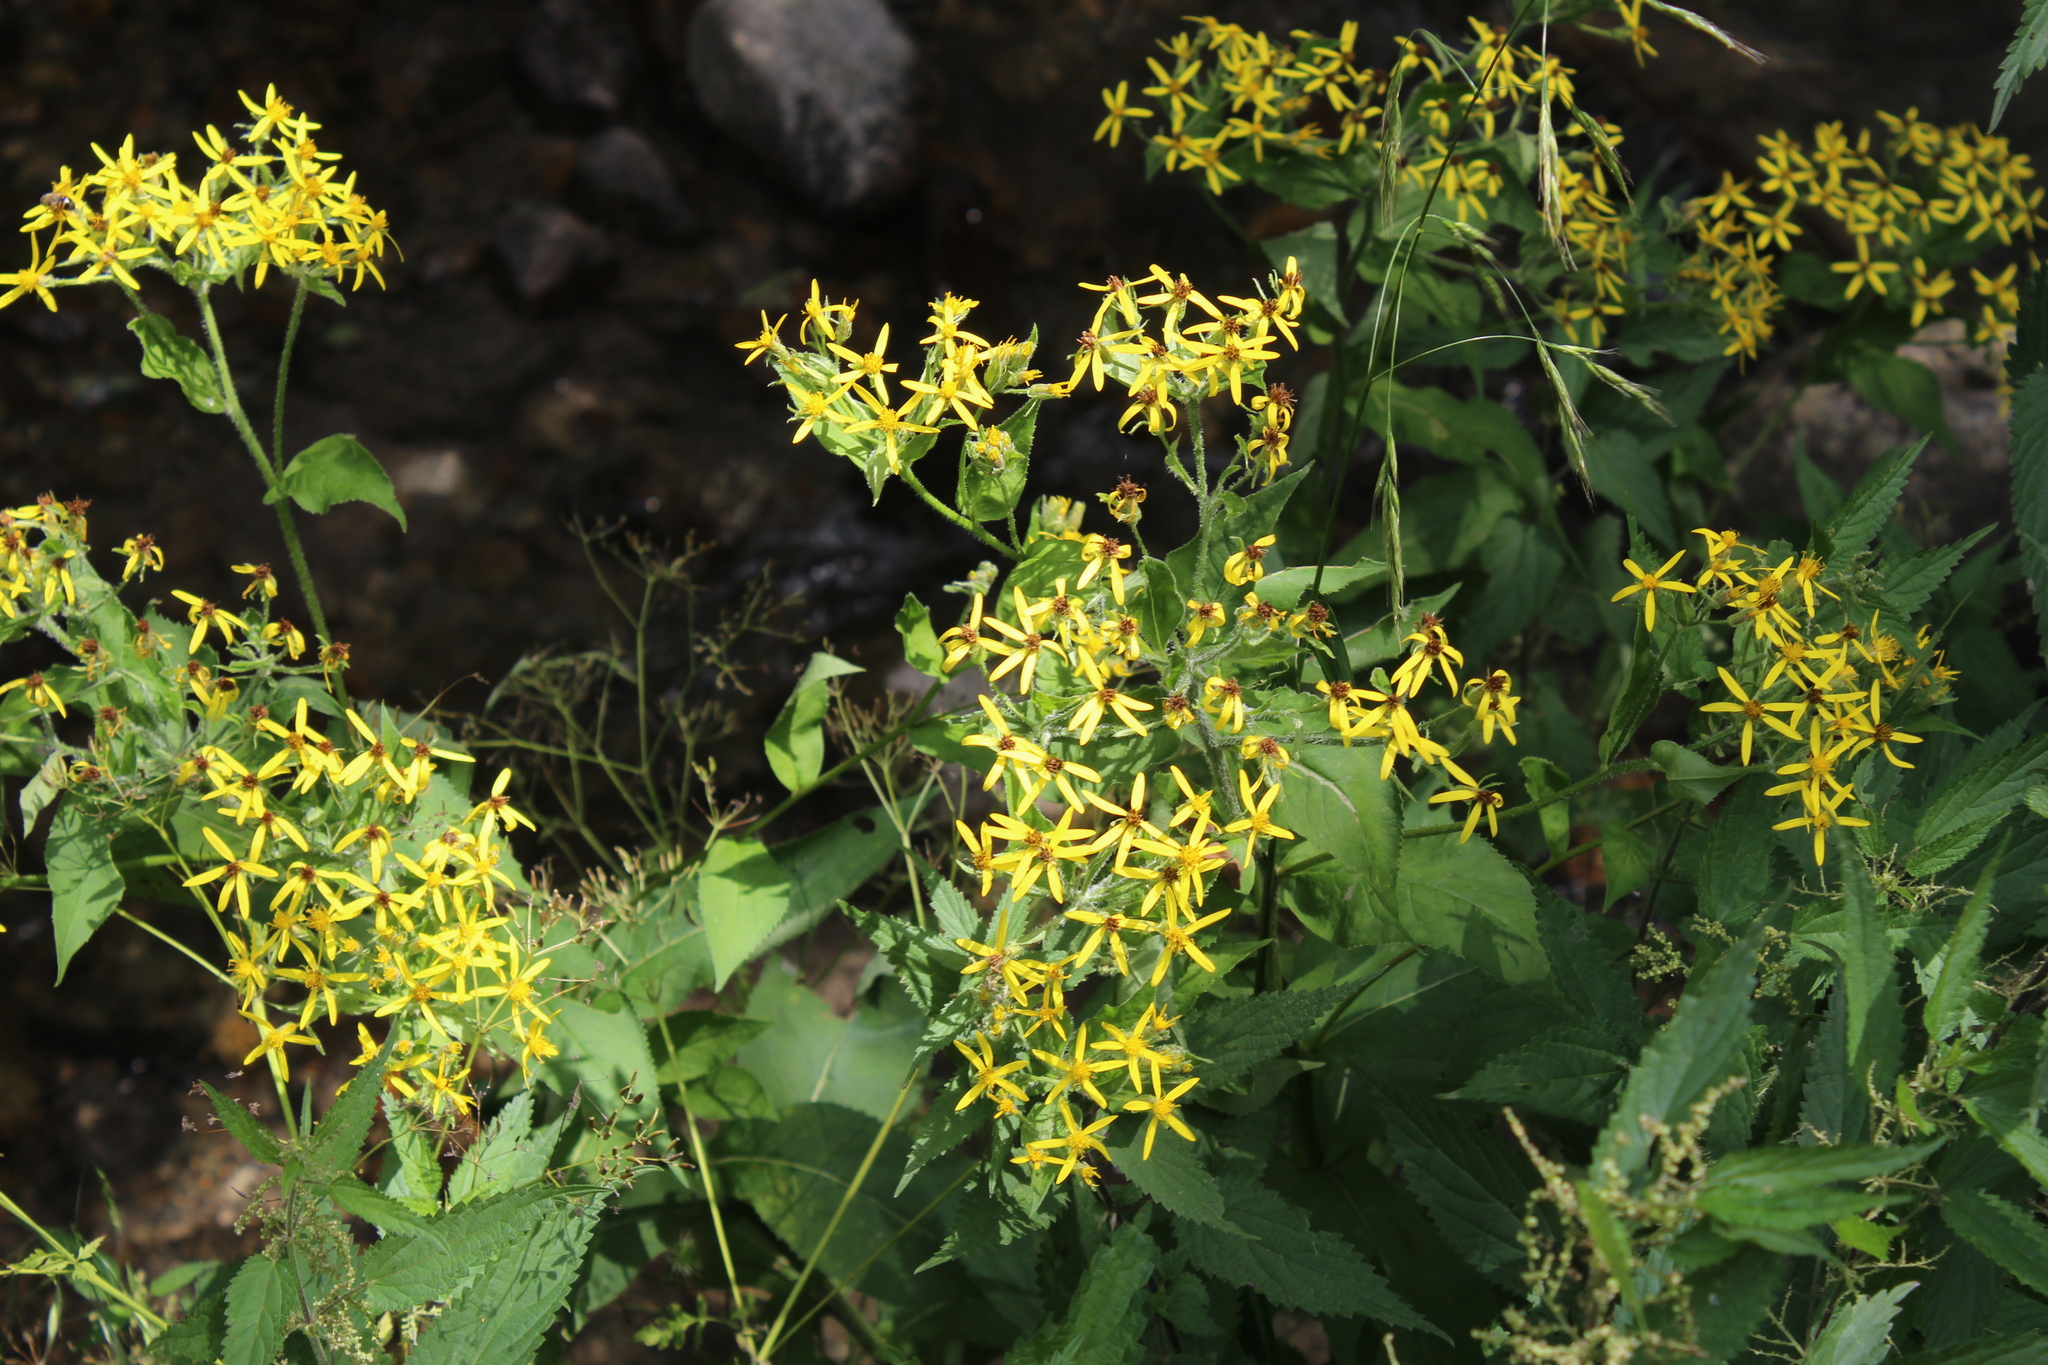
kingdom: Plantae
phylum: Tracheophyta
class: Magnoliopsida
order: Asterales
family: Asteraceae
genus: Senecio
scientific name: Senecio propinquus
